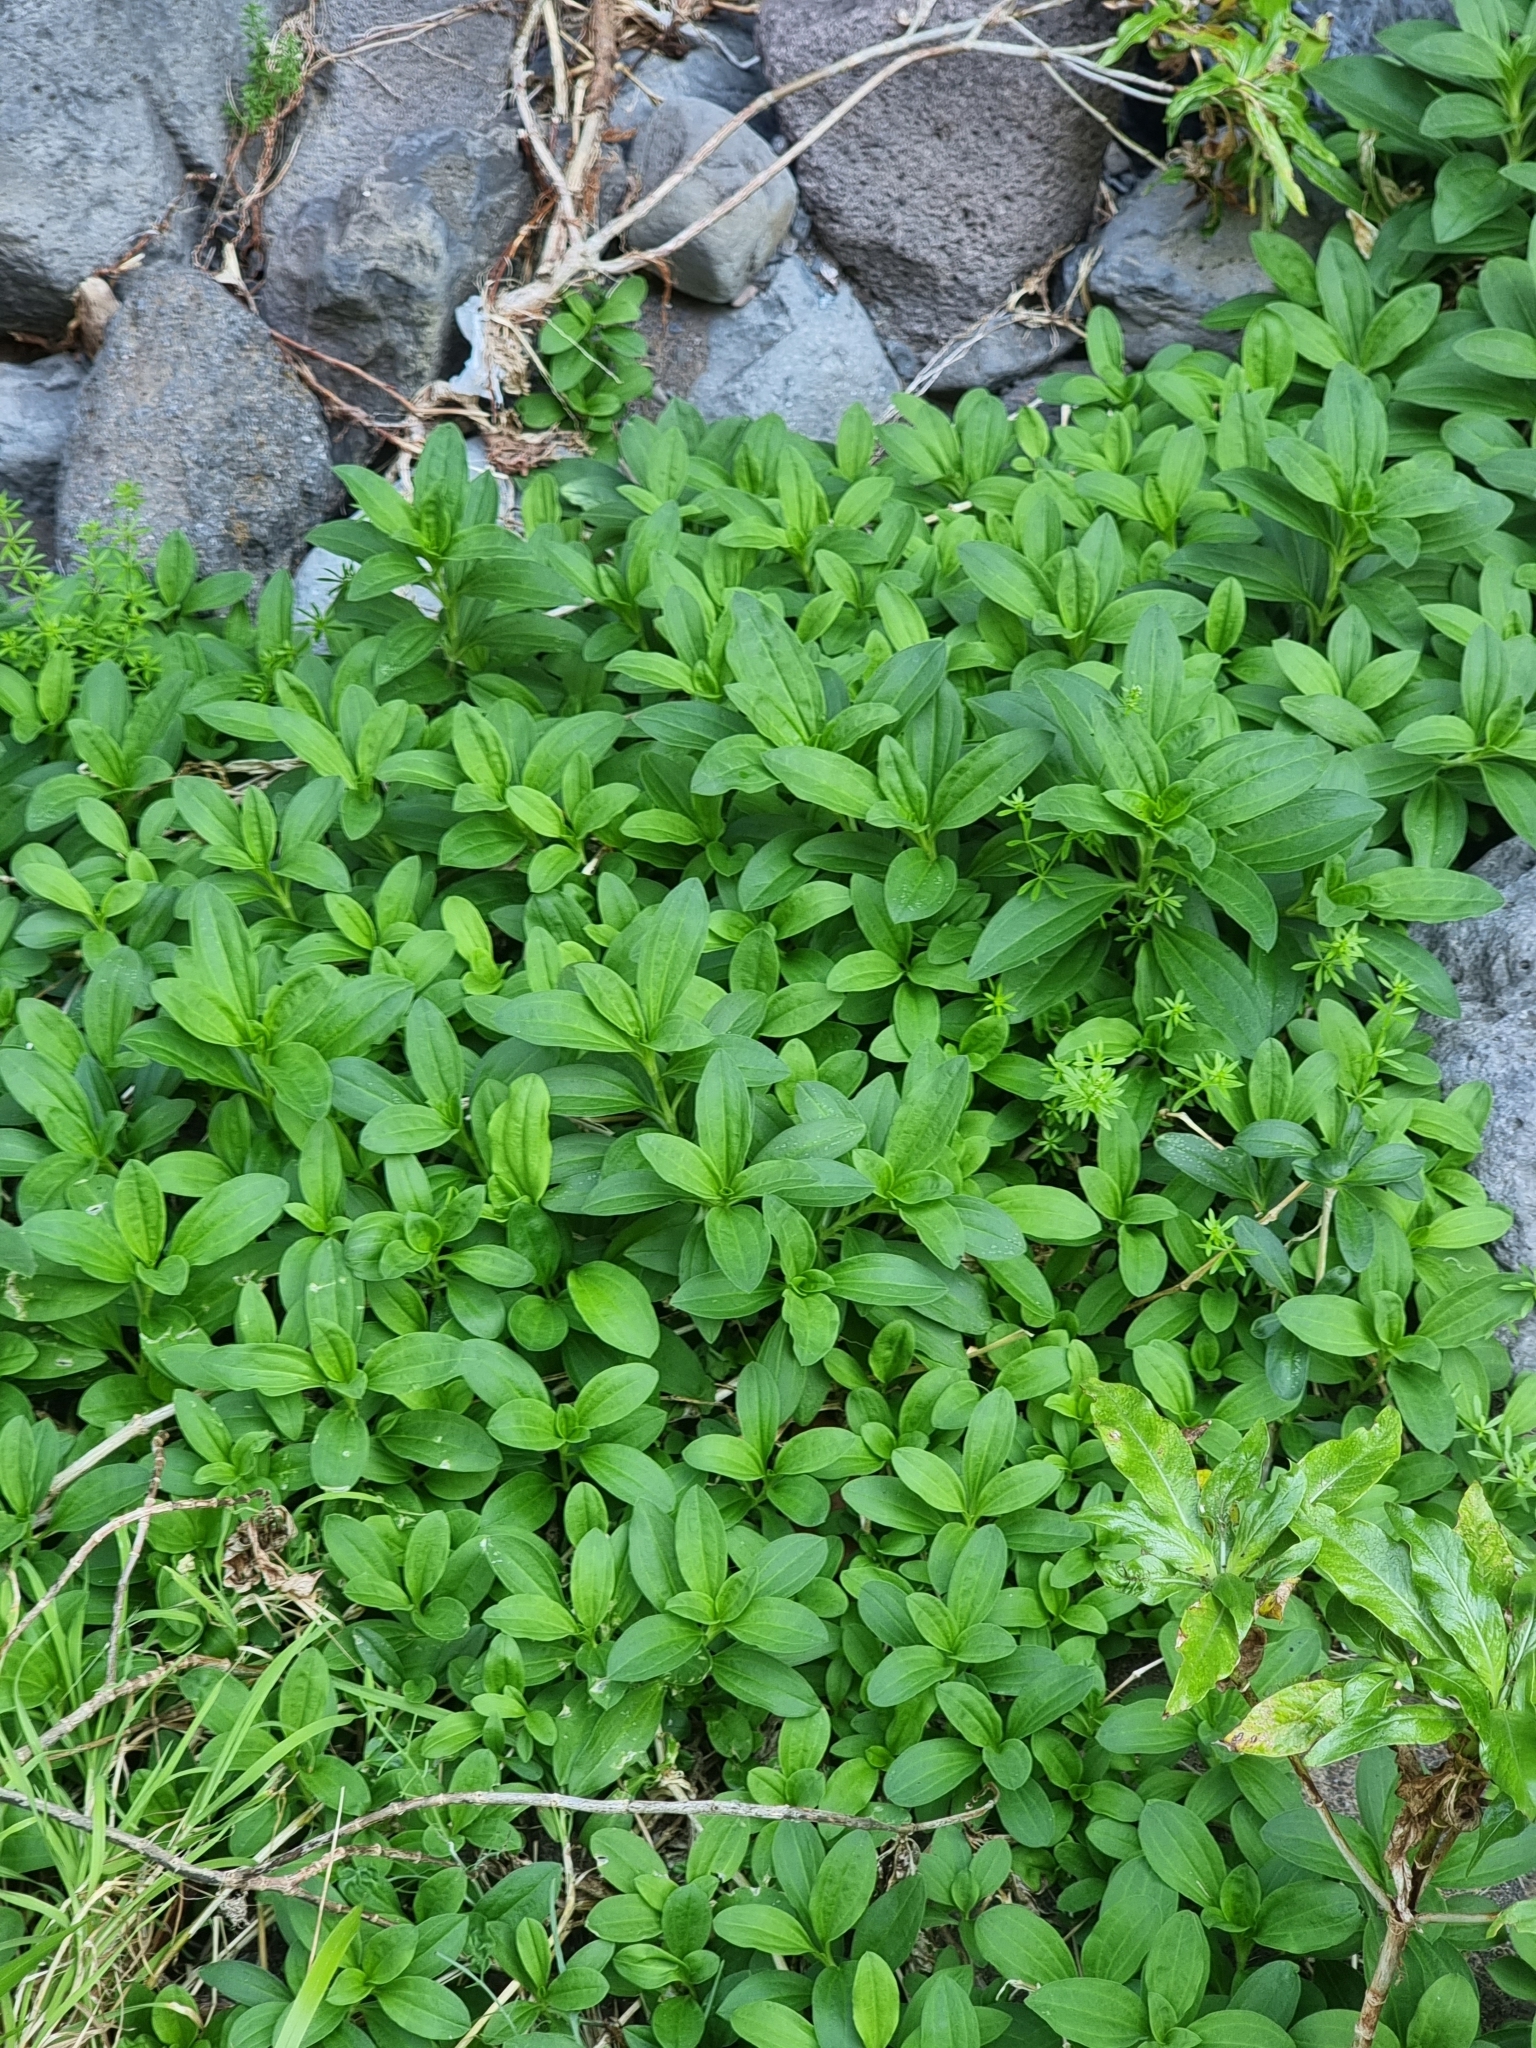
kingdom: Plantae
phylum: Tracheophyta
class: Magnoliopsida
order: Caryophyllales
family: Caryophyllaceae
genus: Saponaria
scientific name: Saponaria officinalis
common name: Soapwort
